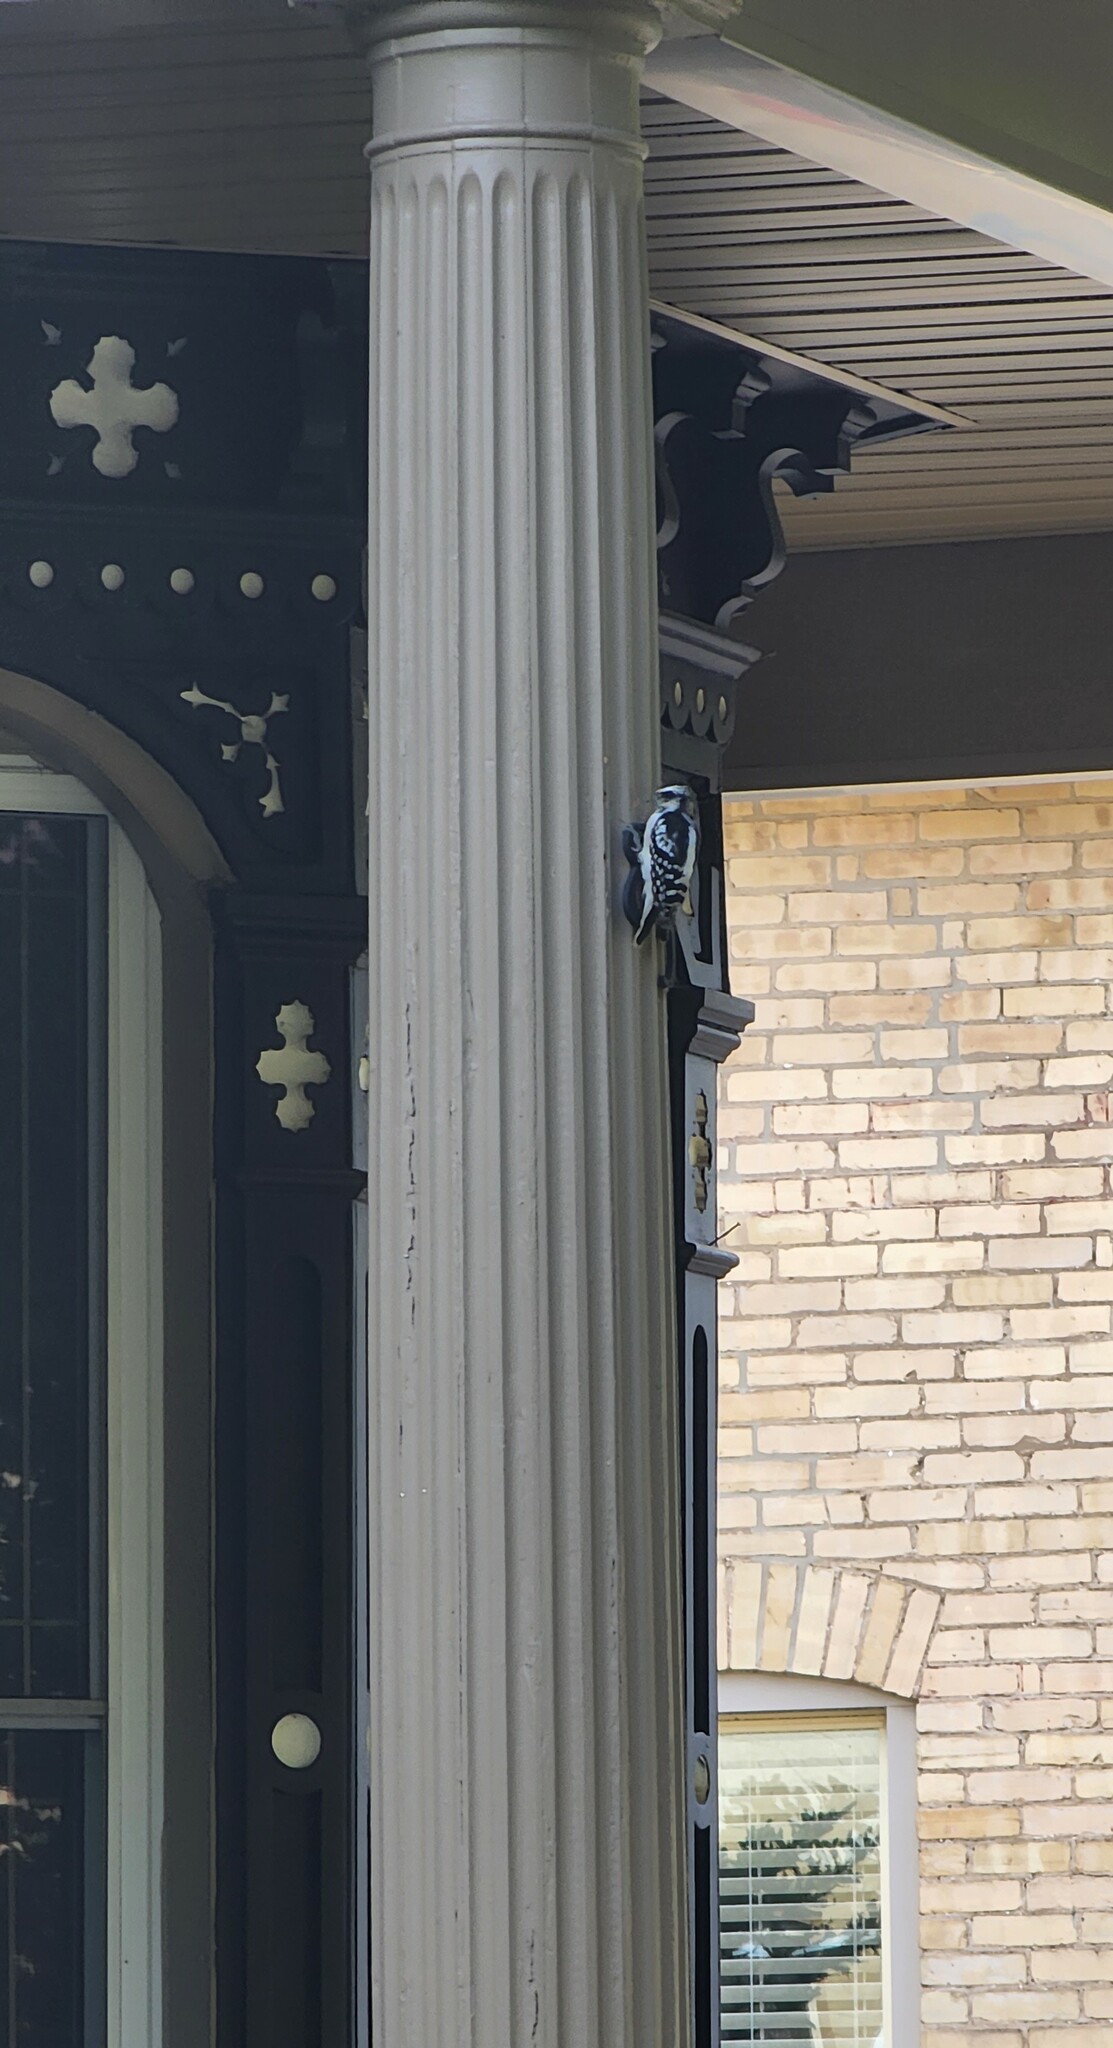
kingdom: Animalia
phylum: Chordata
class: Aves
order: Piciformes
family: Picidae
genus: Dryobates
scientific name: Dryobates pubescens
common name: Downy woodpecker
